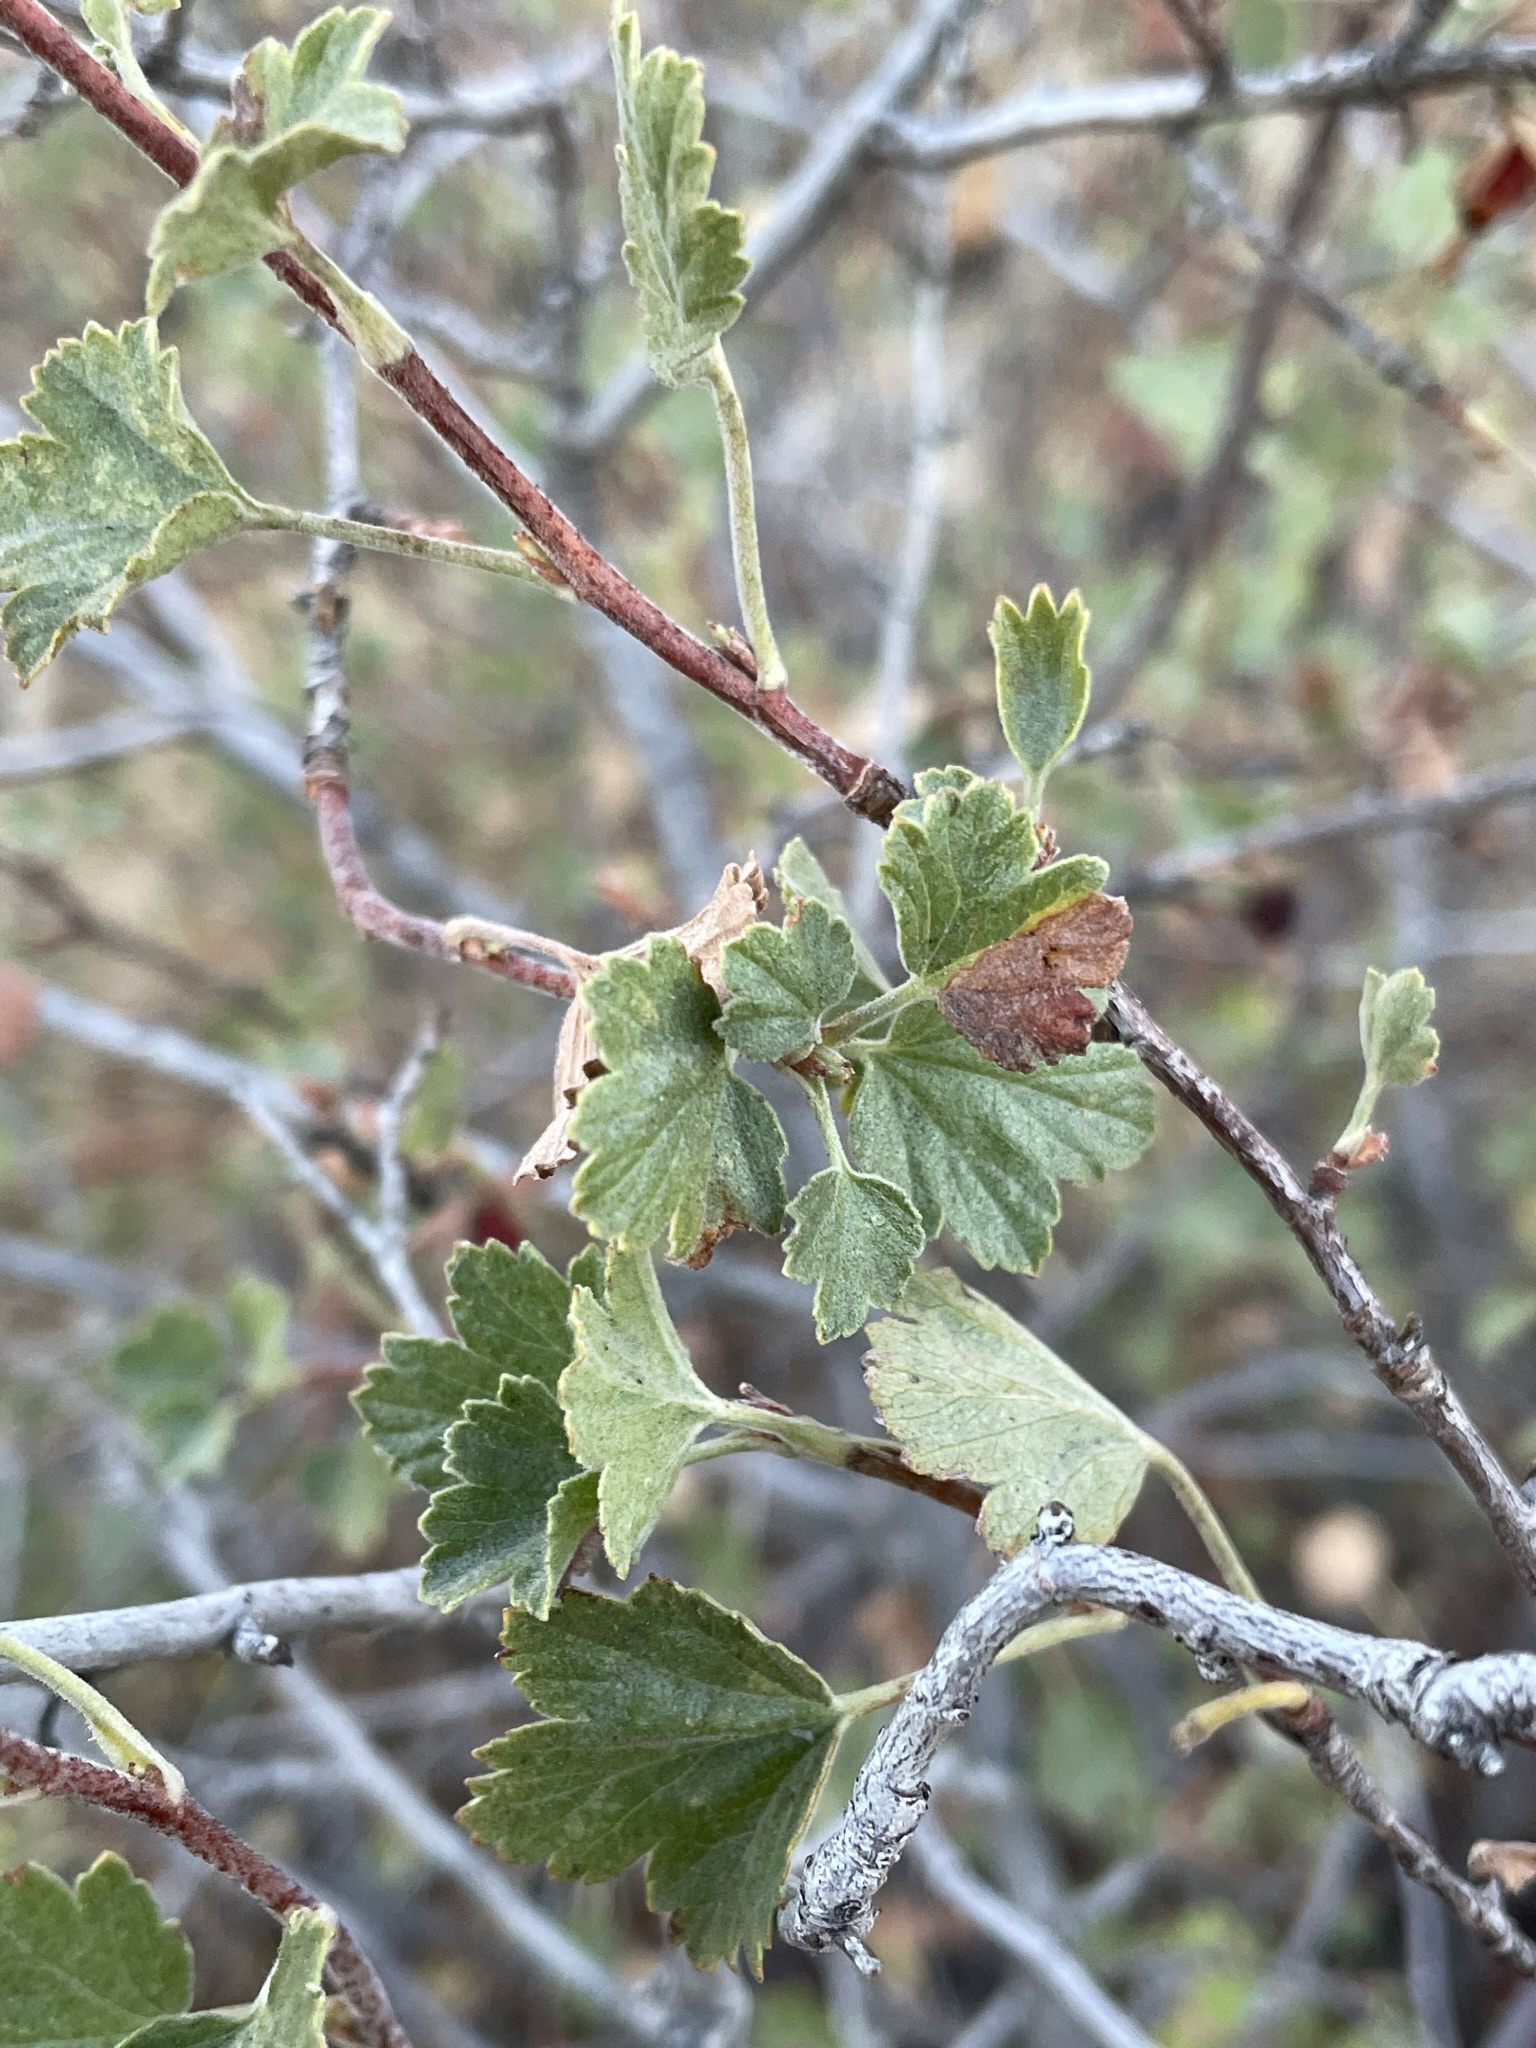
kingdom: Plantae
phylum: Tracheophyta
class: Magnoliopsida
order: Saxifragales
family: Grossulariaceae
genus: Ribes
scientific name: Ribes cereum
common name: Wax currant
